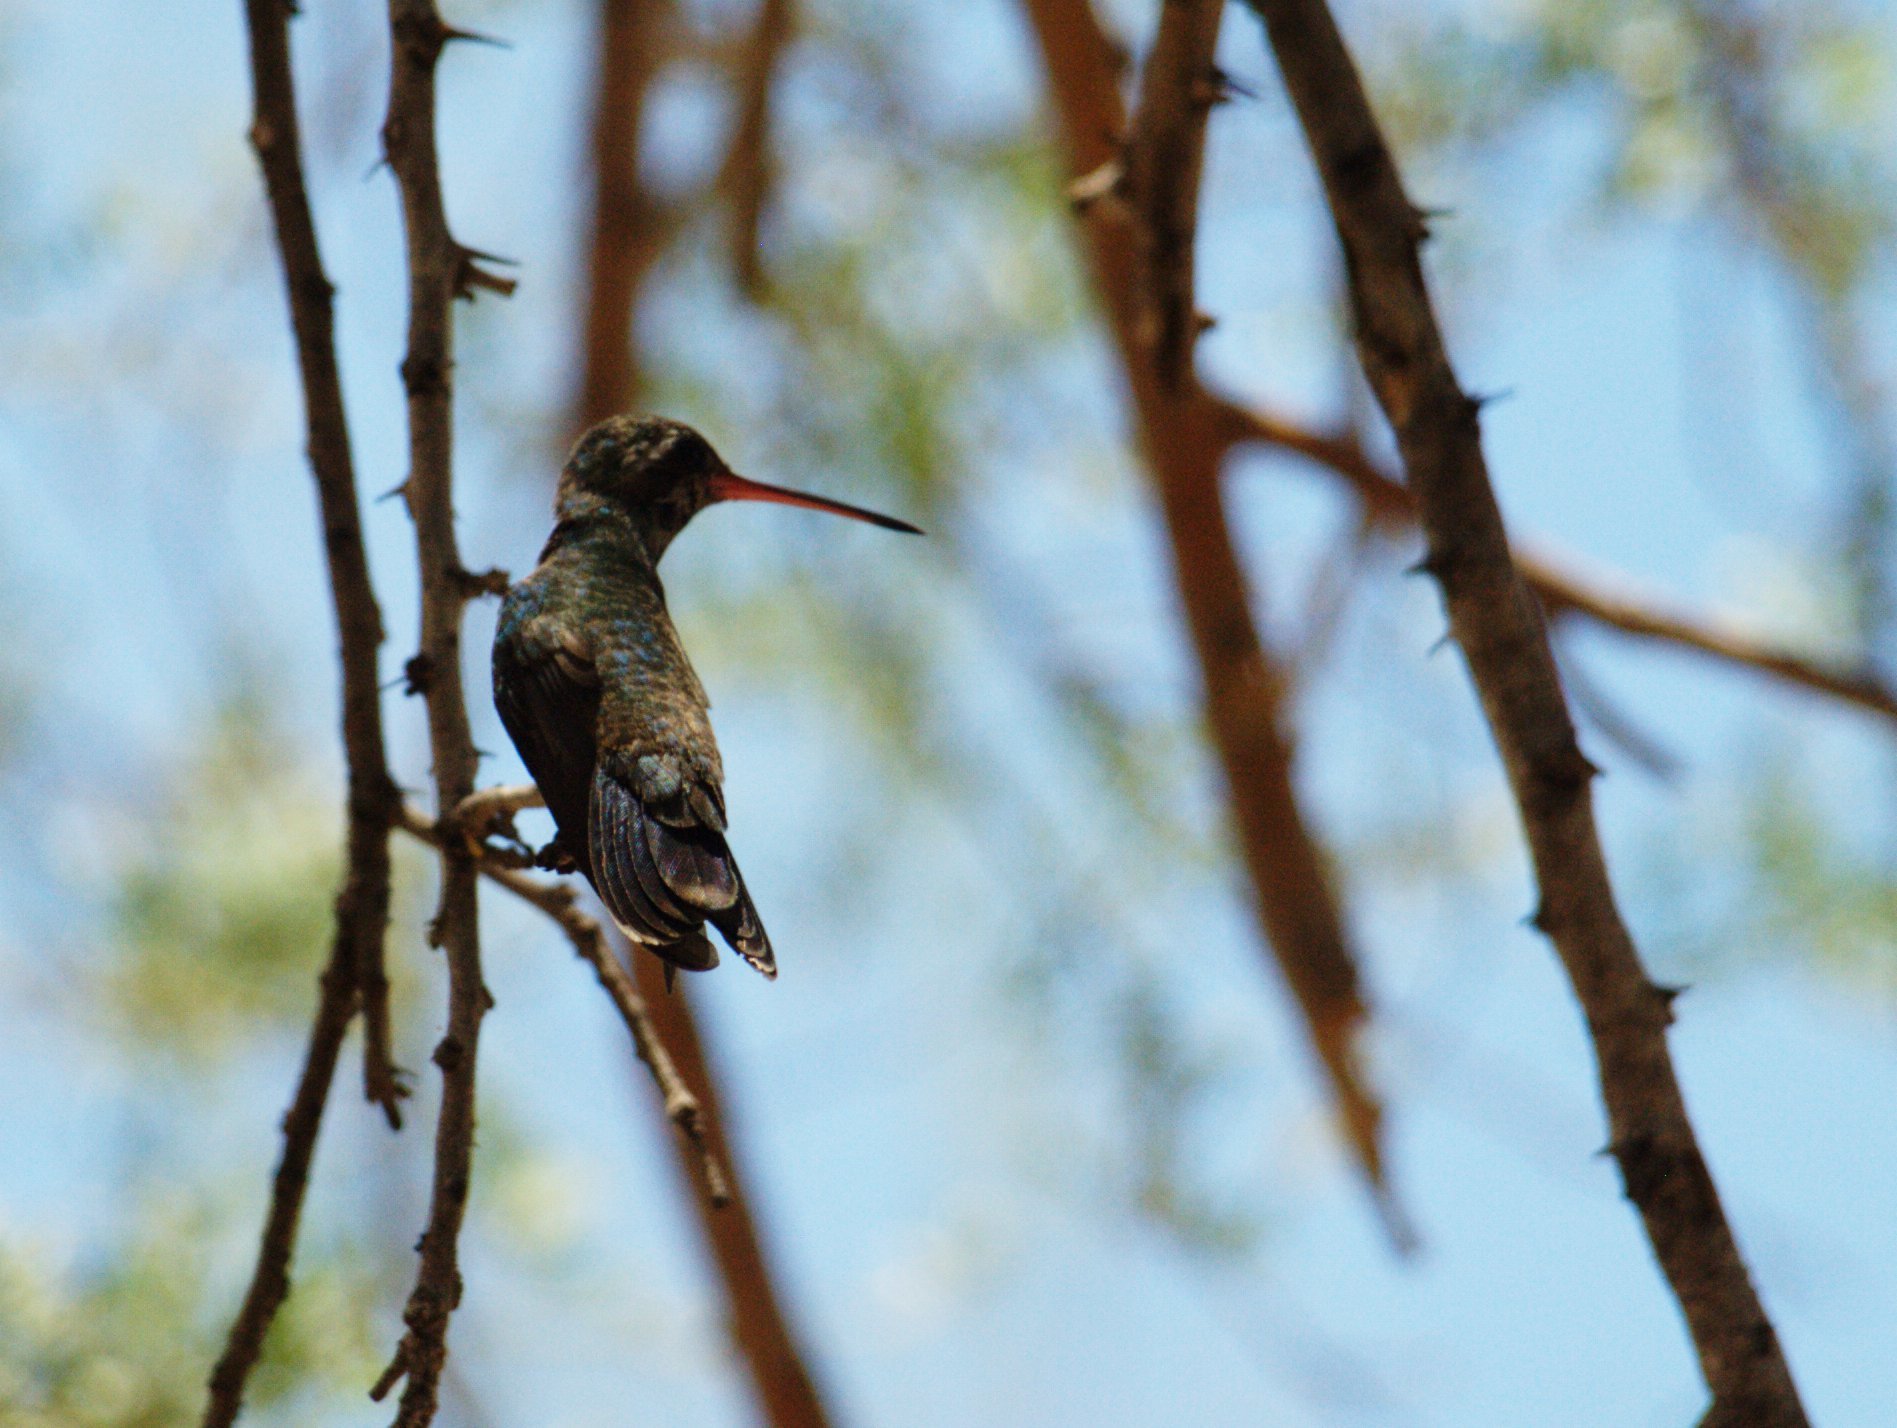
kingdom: Animalia
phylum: Chordata
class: Aves
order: Apodiformes
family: Trochilidae
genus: Cynanthus
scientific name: Cynanthus latirostris
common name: Broad-billed hummingbird
